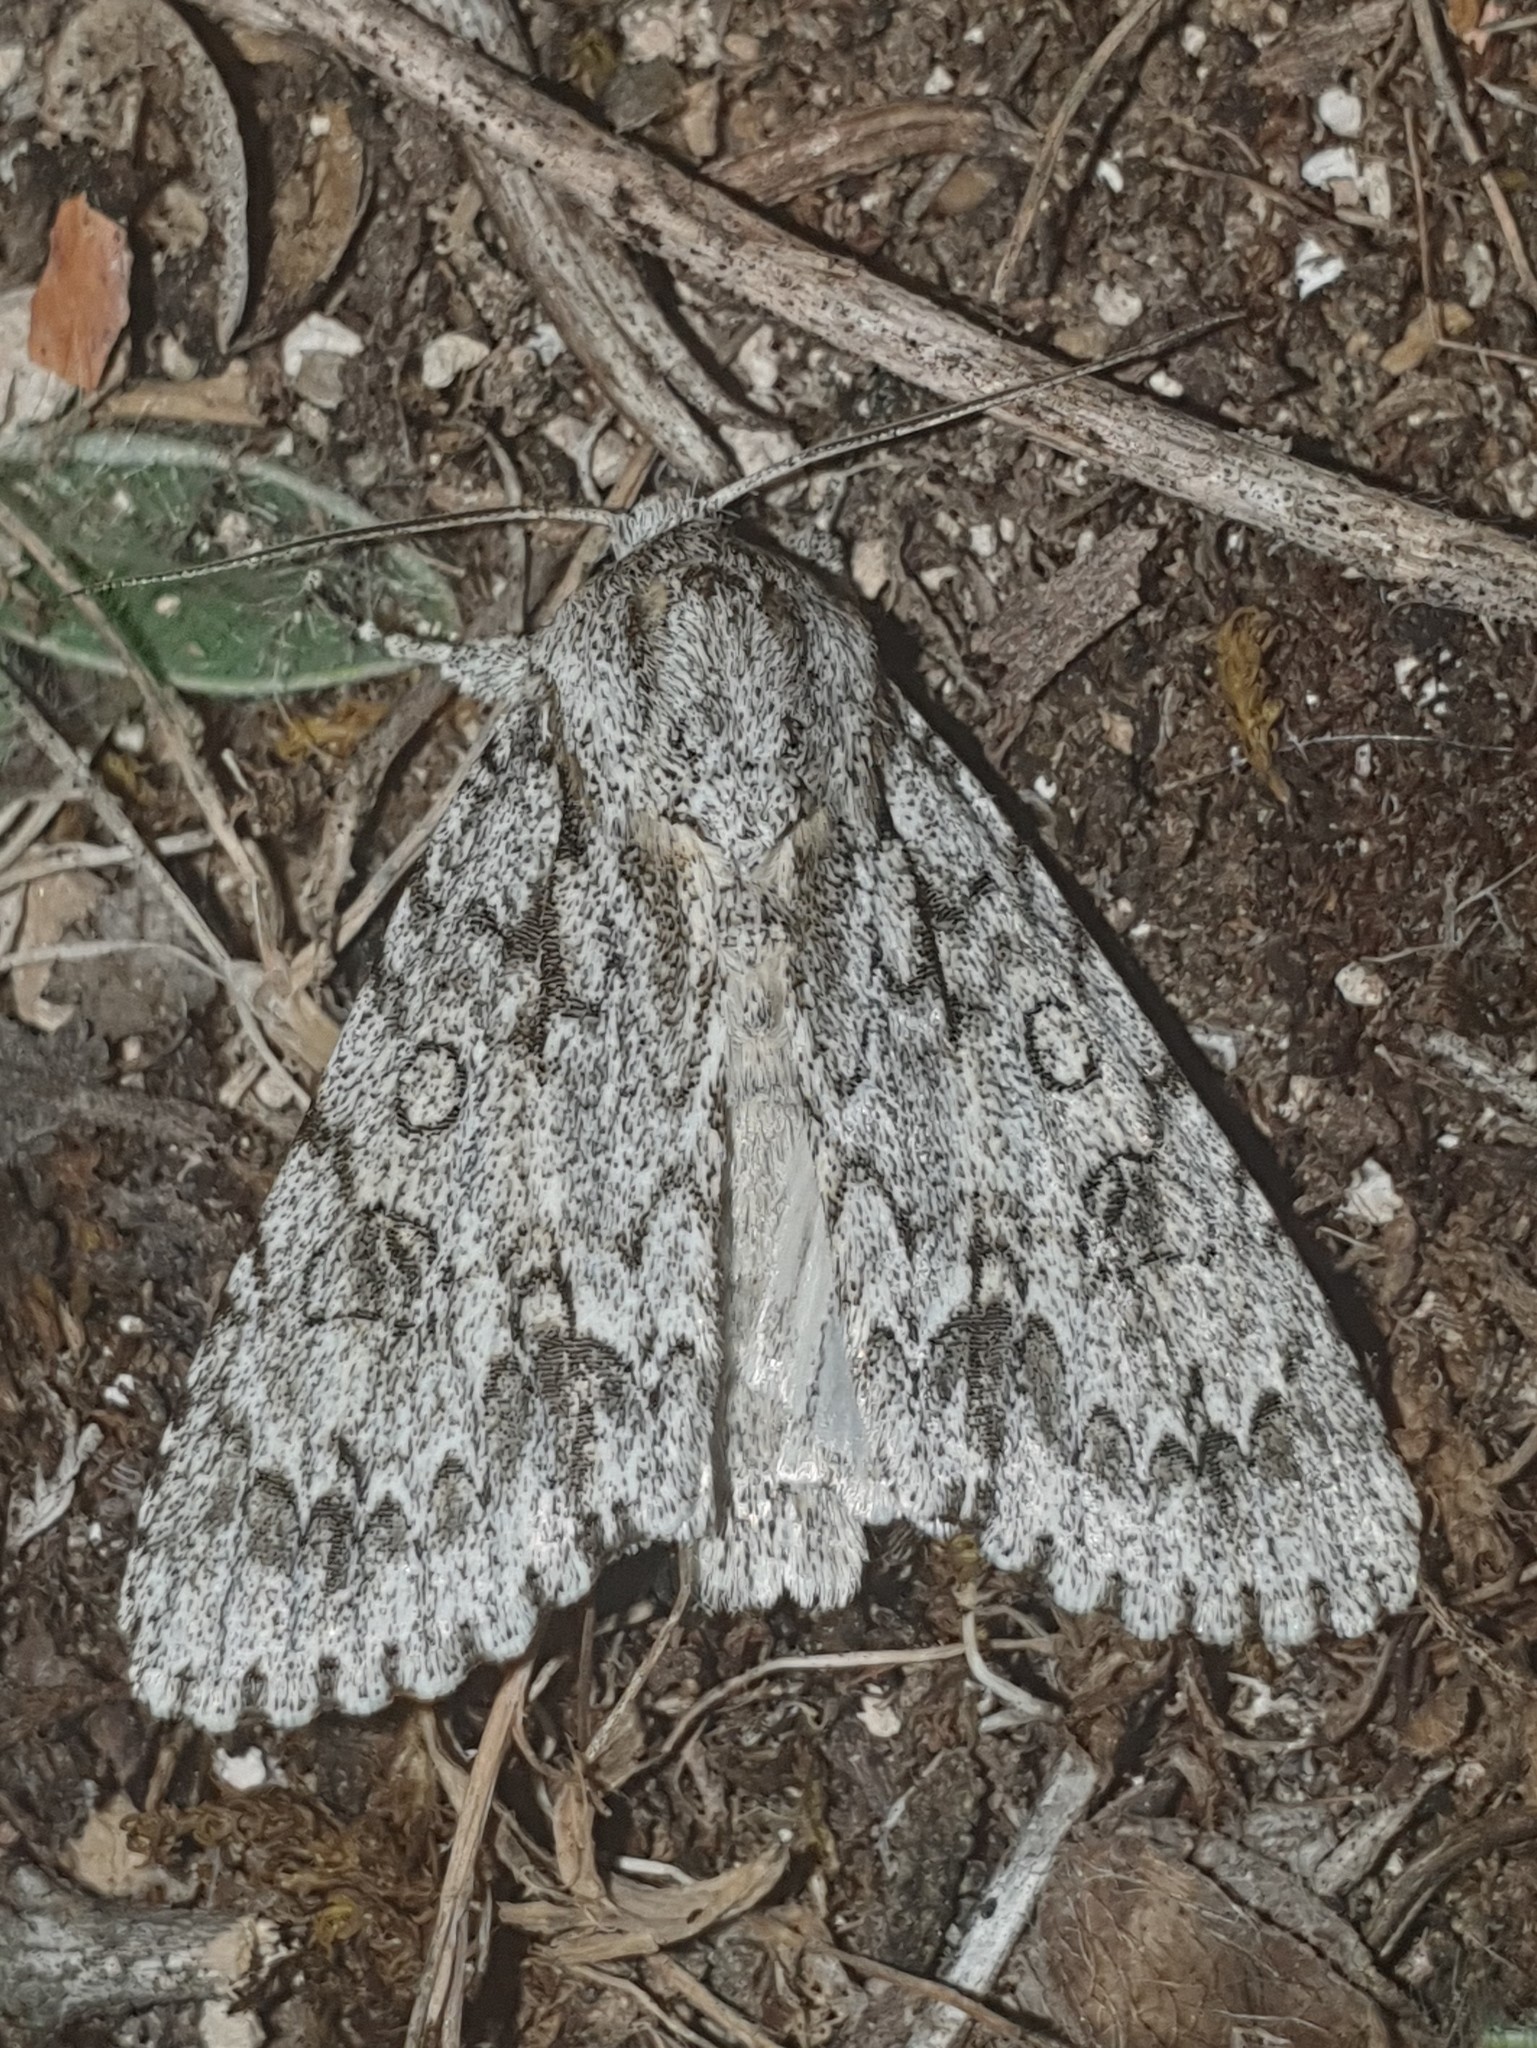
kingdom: Animalia
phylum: Arthropoda
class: Insecta
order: Lepidoptera
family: Noctuidae
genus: Acronicta
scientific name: Acronicta aceris
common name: Sycamore
